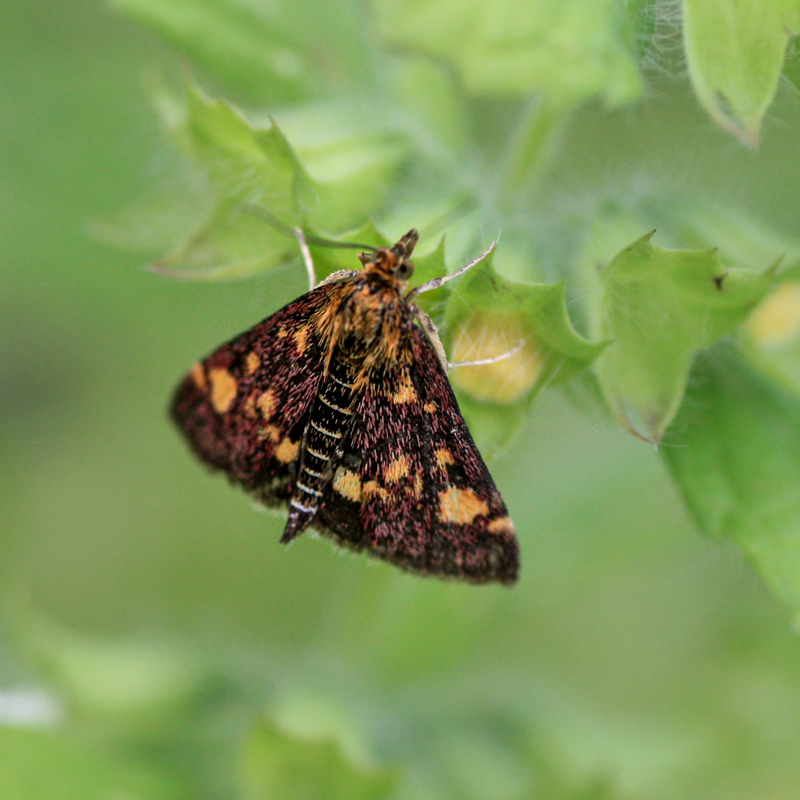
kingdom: Animalia
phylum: Arthropoda
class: Insecta
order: Lepidoptera
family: Crambidae
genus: Pyrausta
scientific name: Pyrausta aurata
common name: Small purple & gold
